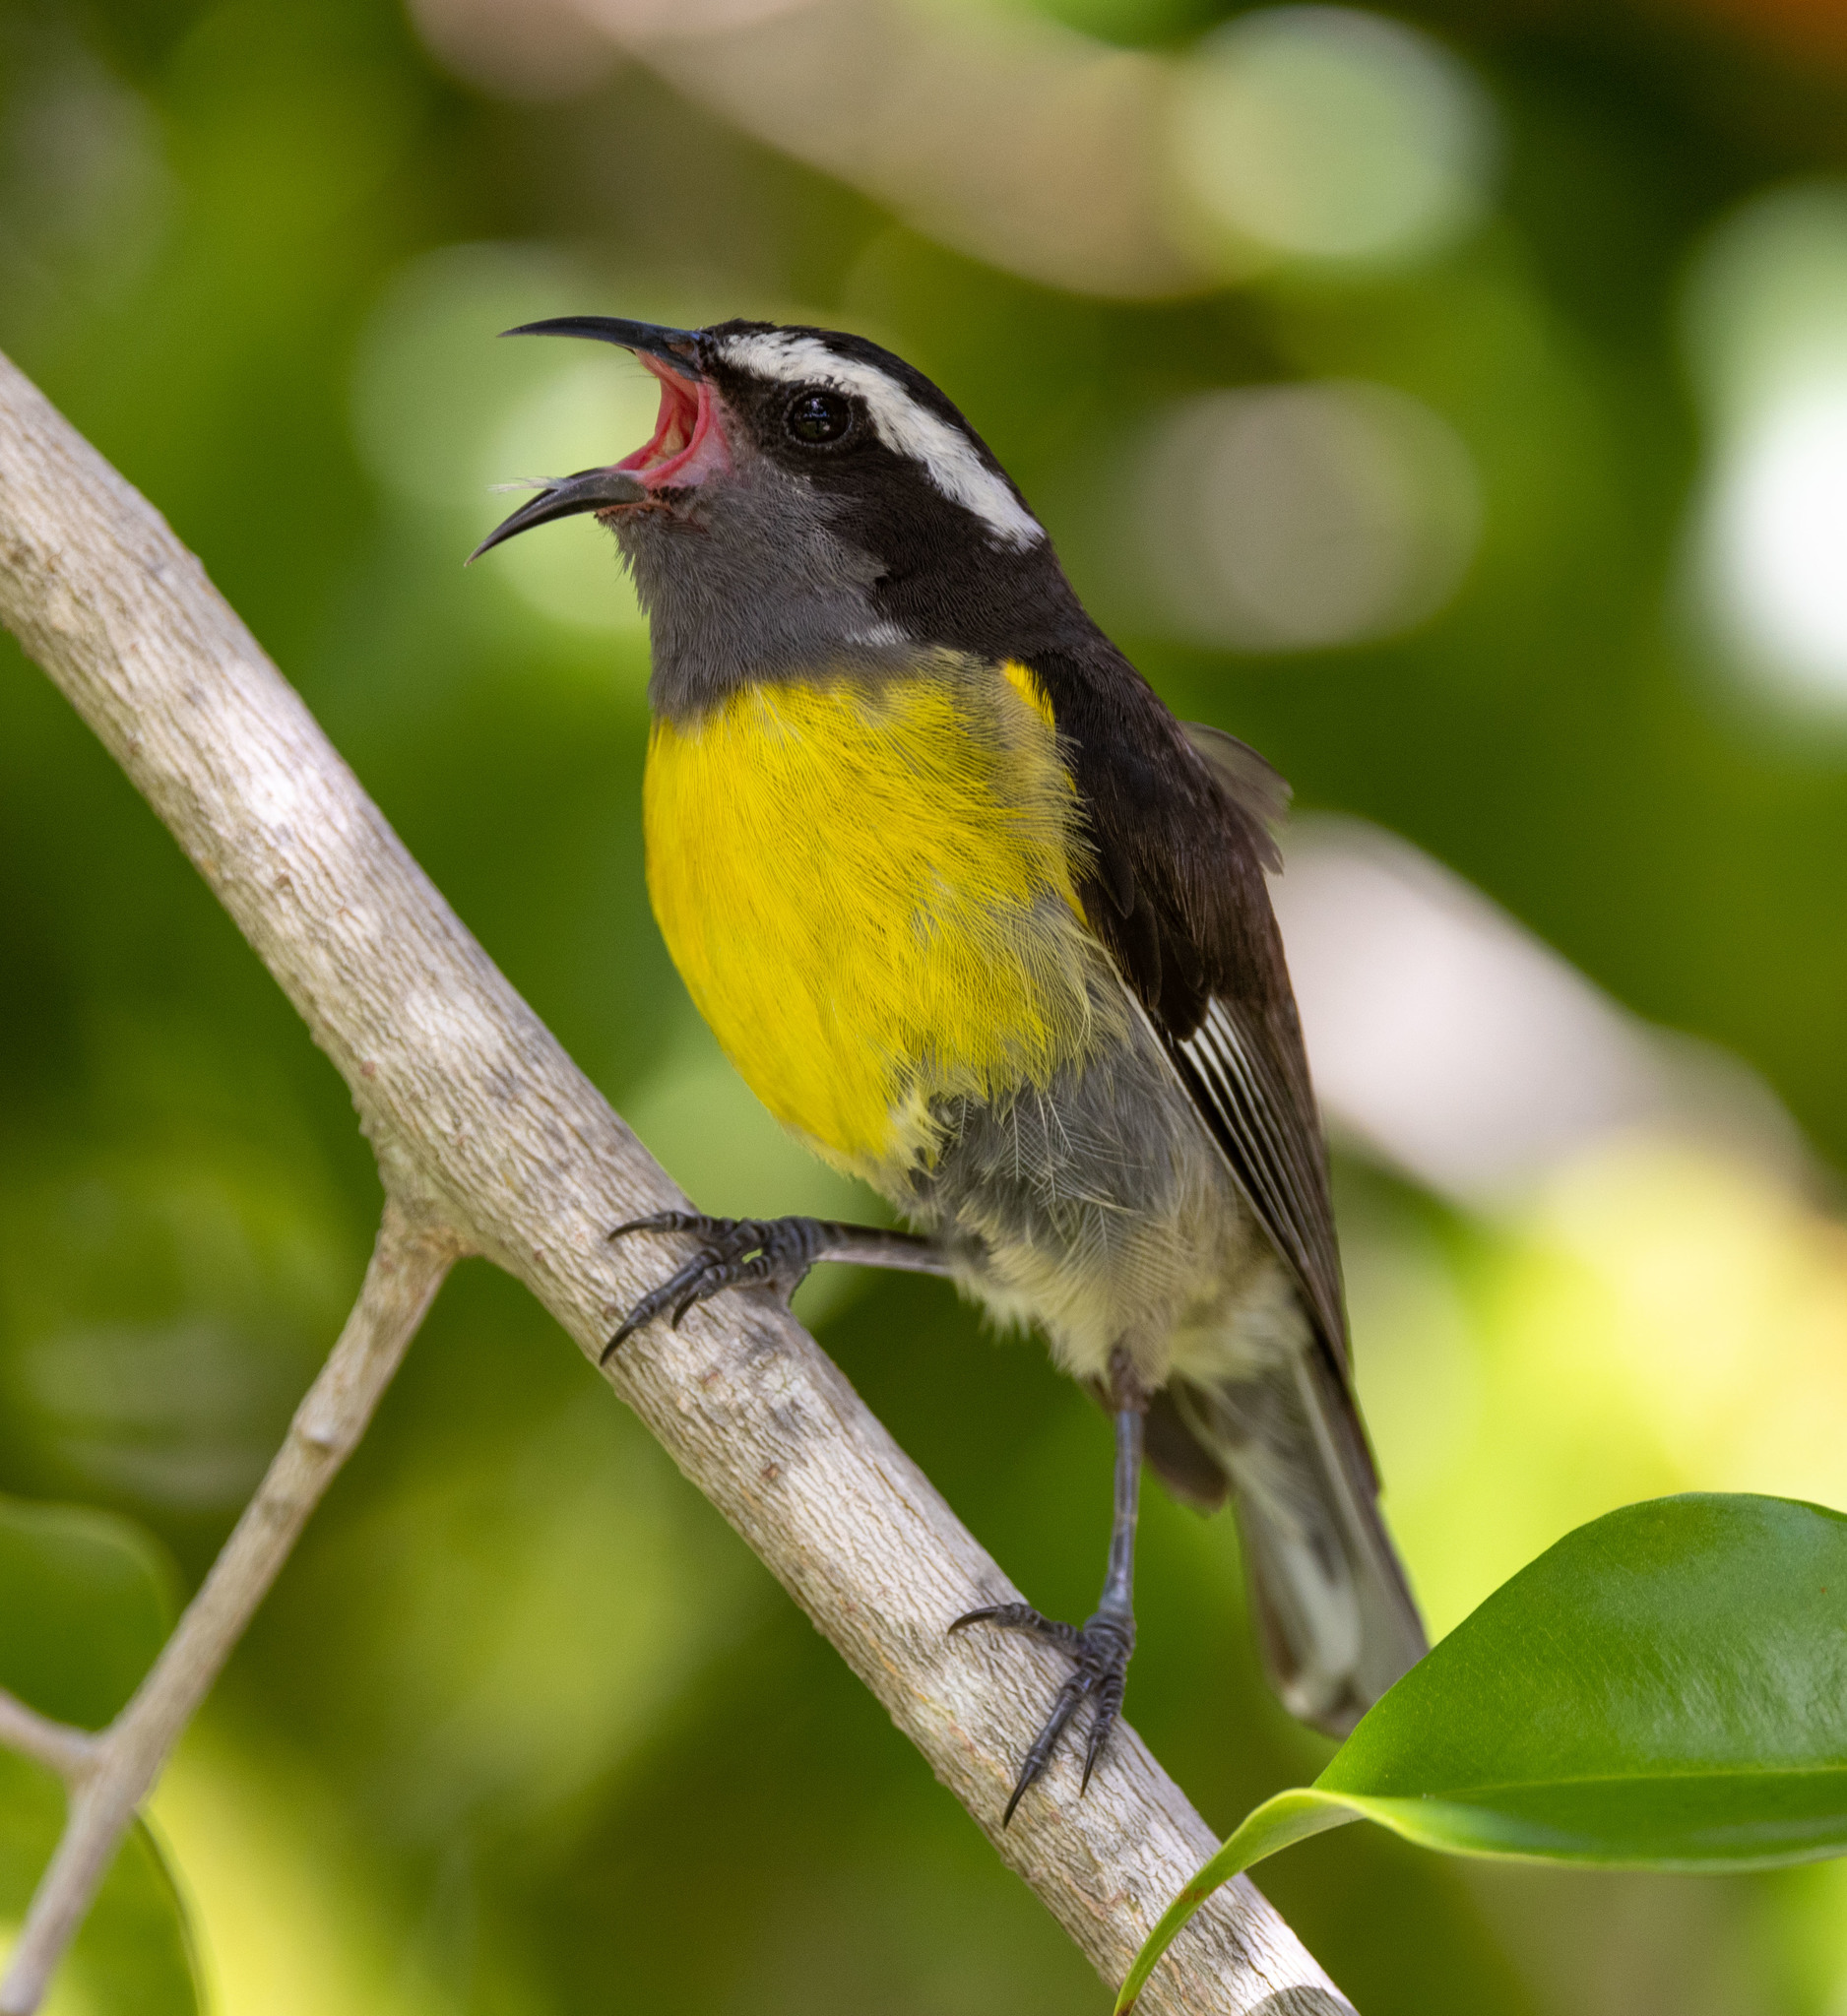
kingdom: Animalia
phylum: Chordata
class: Aves
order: Passeriformes
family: Thraupidae
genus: Coereba
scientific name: Coereba flaveola
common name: Bananaquit
